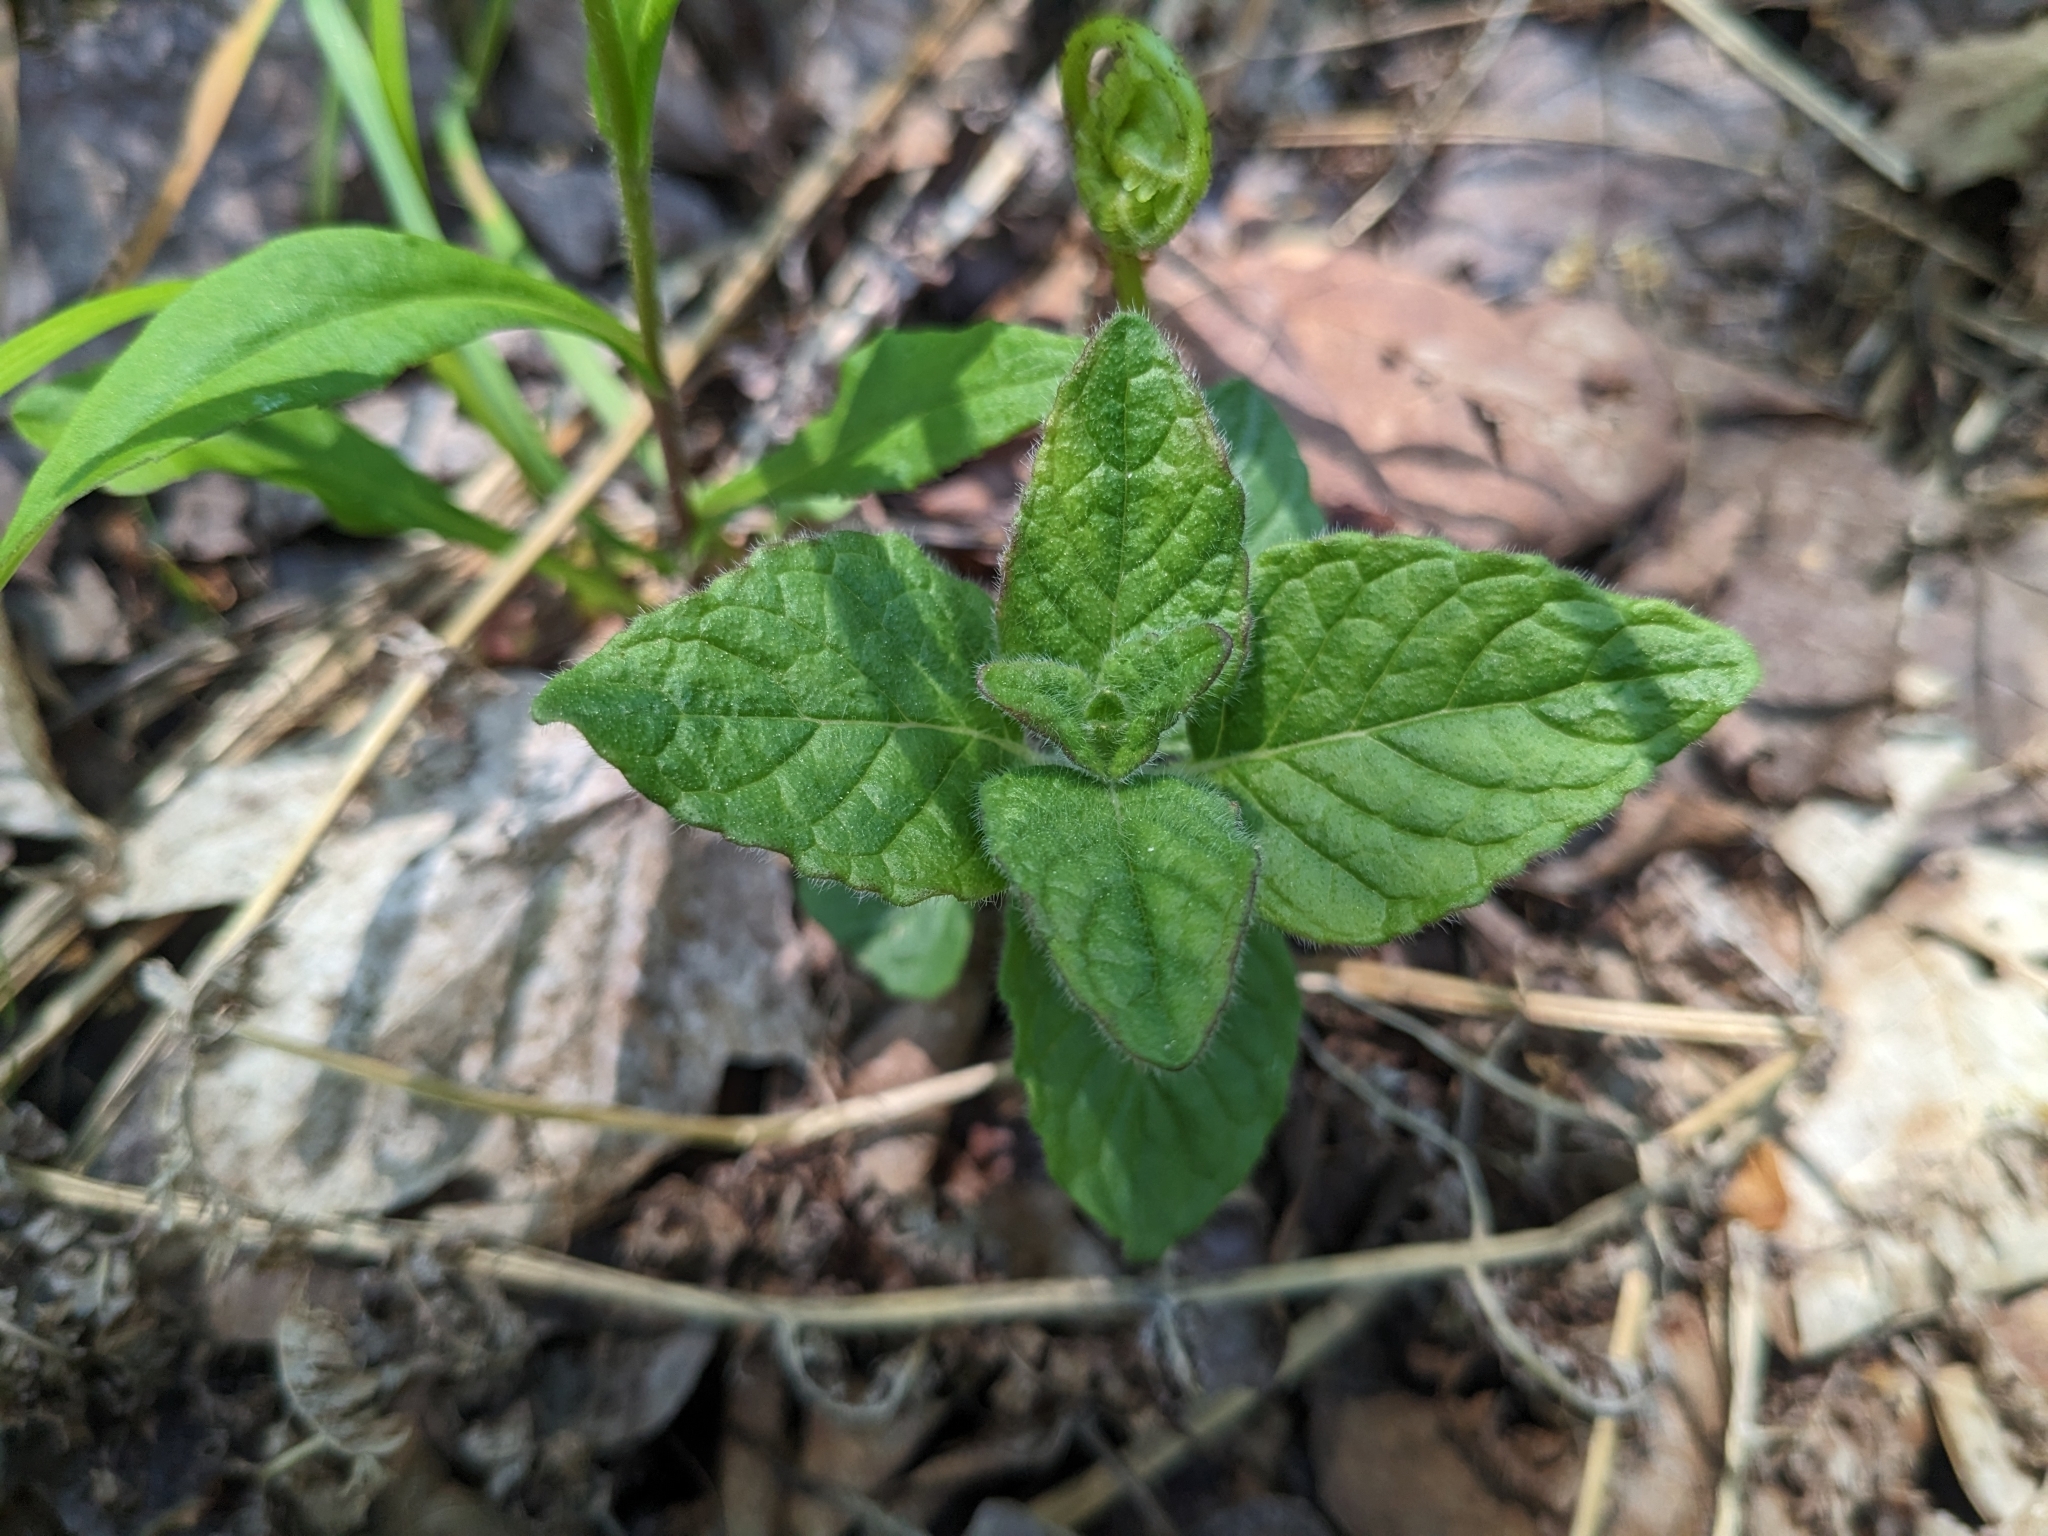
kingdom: Plantae
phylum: Tracheophyta
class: Magnoliopsida
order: Lamiales
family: Lamiaceae
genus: Clinopodium
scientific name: Clinopodium vulgare
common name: Wild basil
